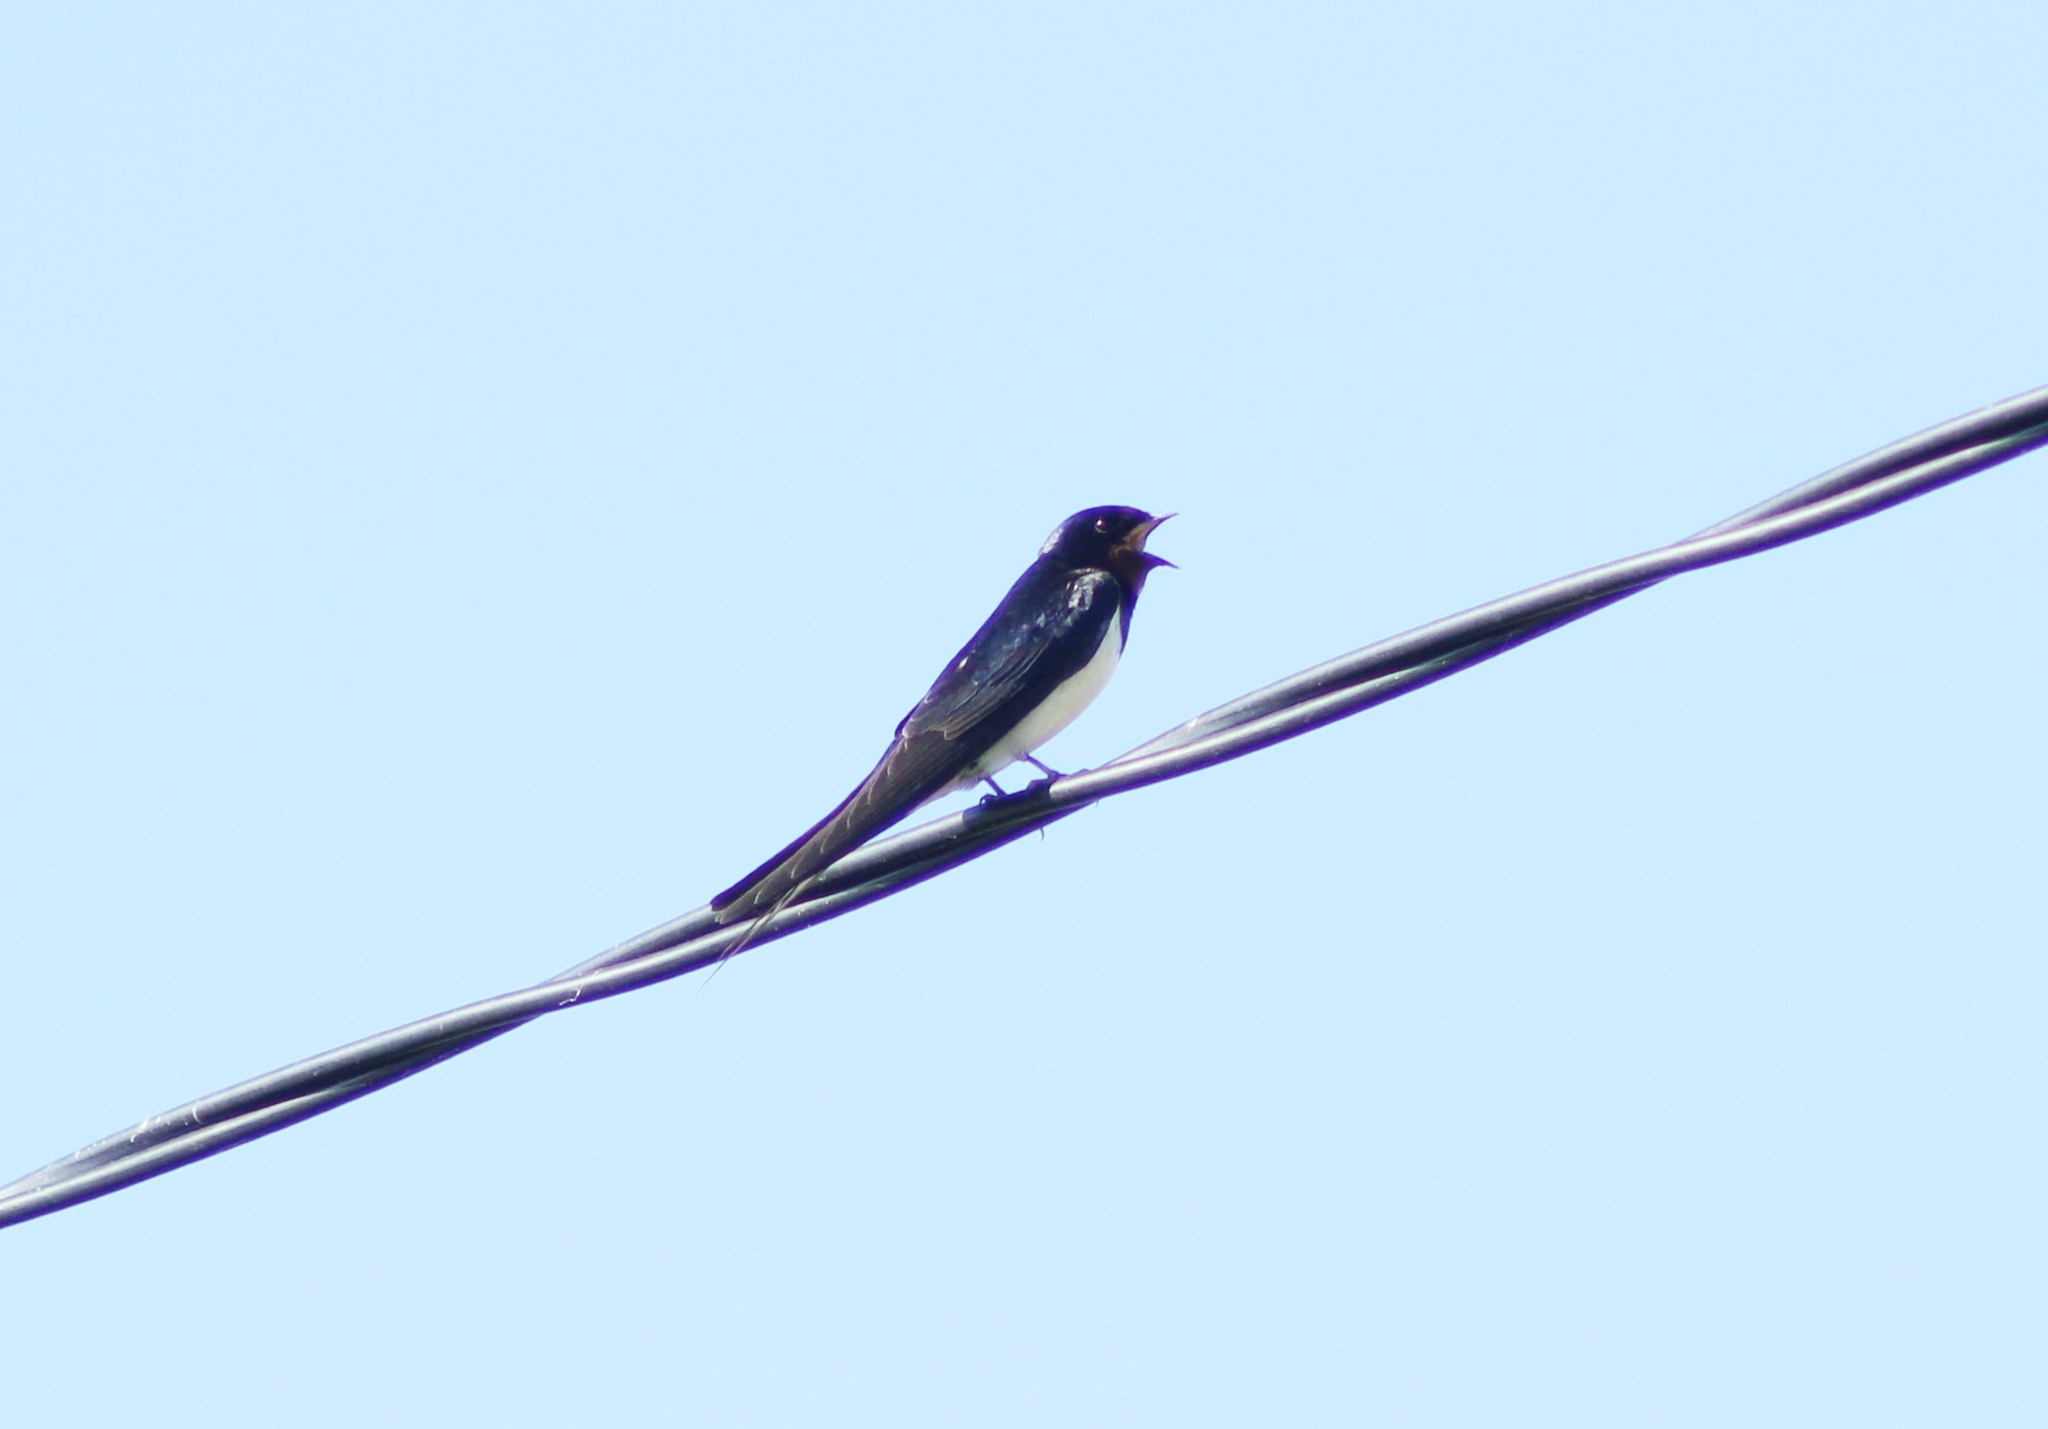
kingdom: Animalia
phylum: Chordata
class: Aves
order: Passeriformes
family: Hirundinidae
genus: Hirundo
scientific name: Hirundo rustica
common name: Barn swallow
